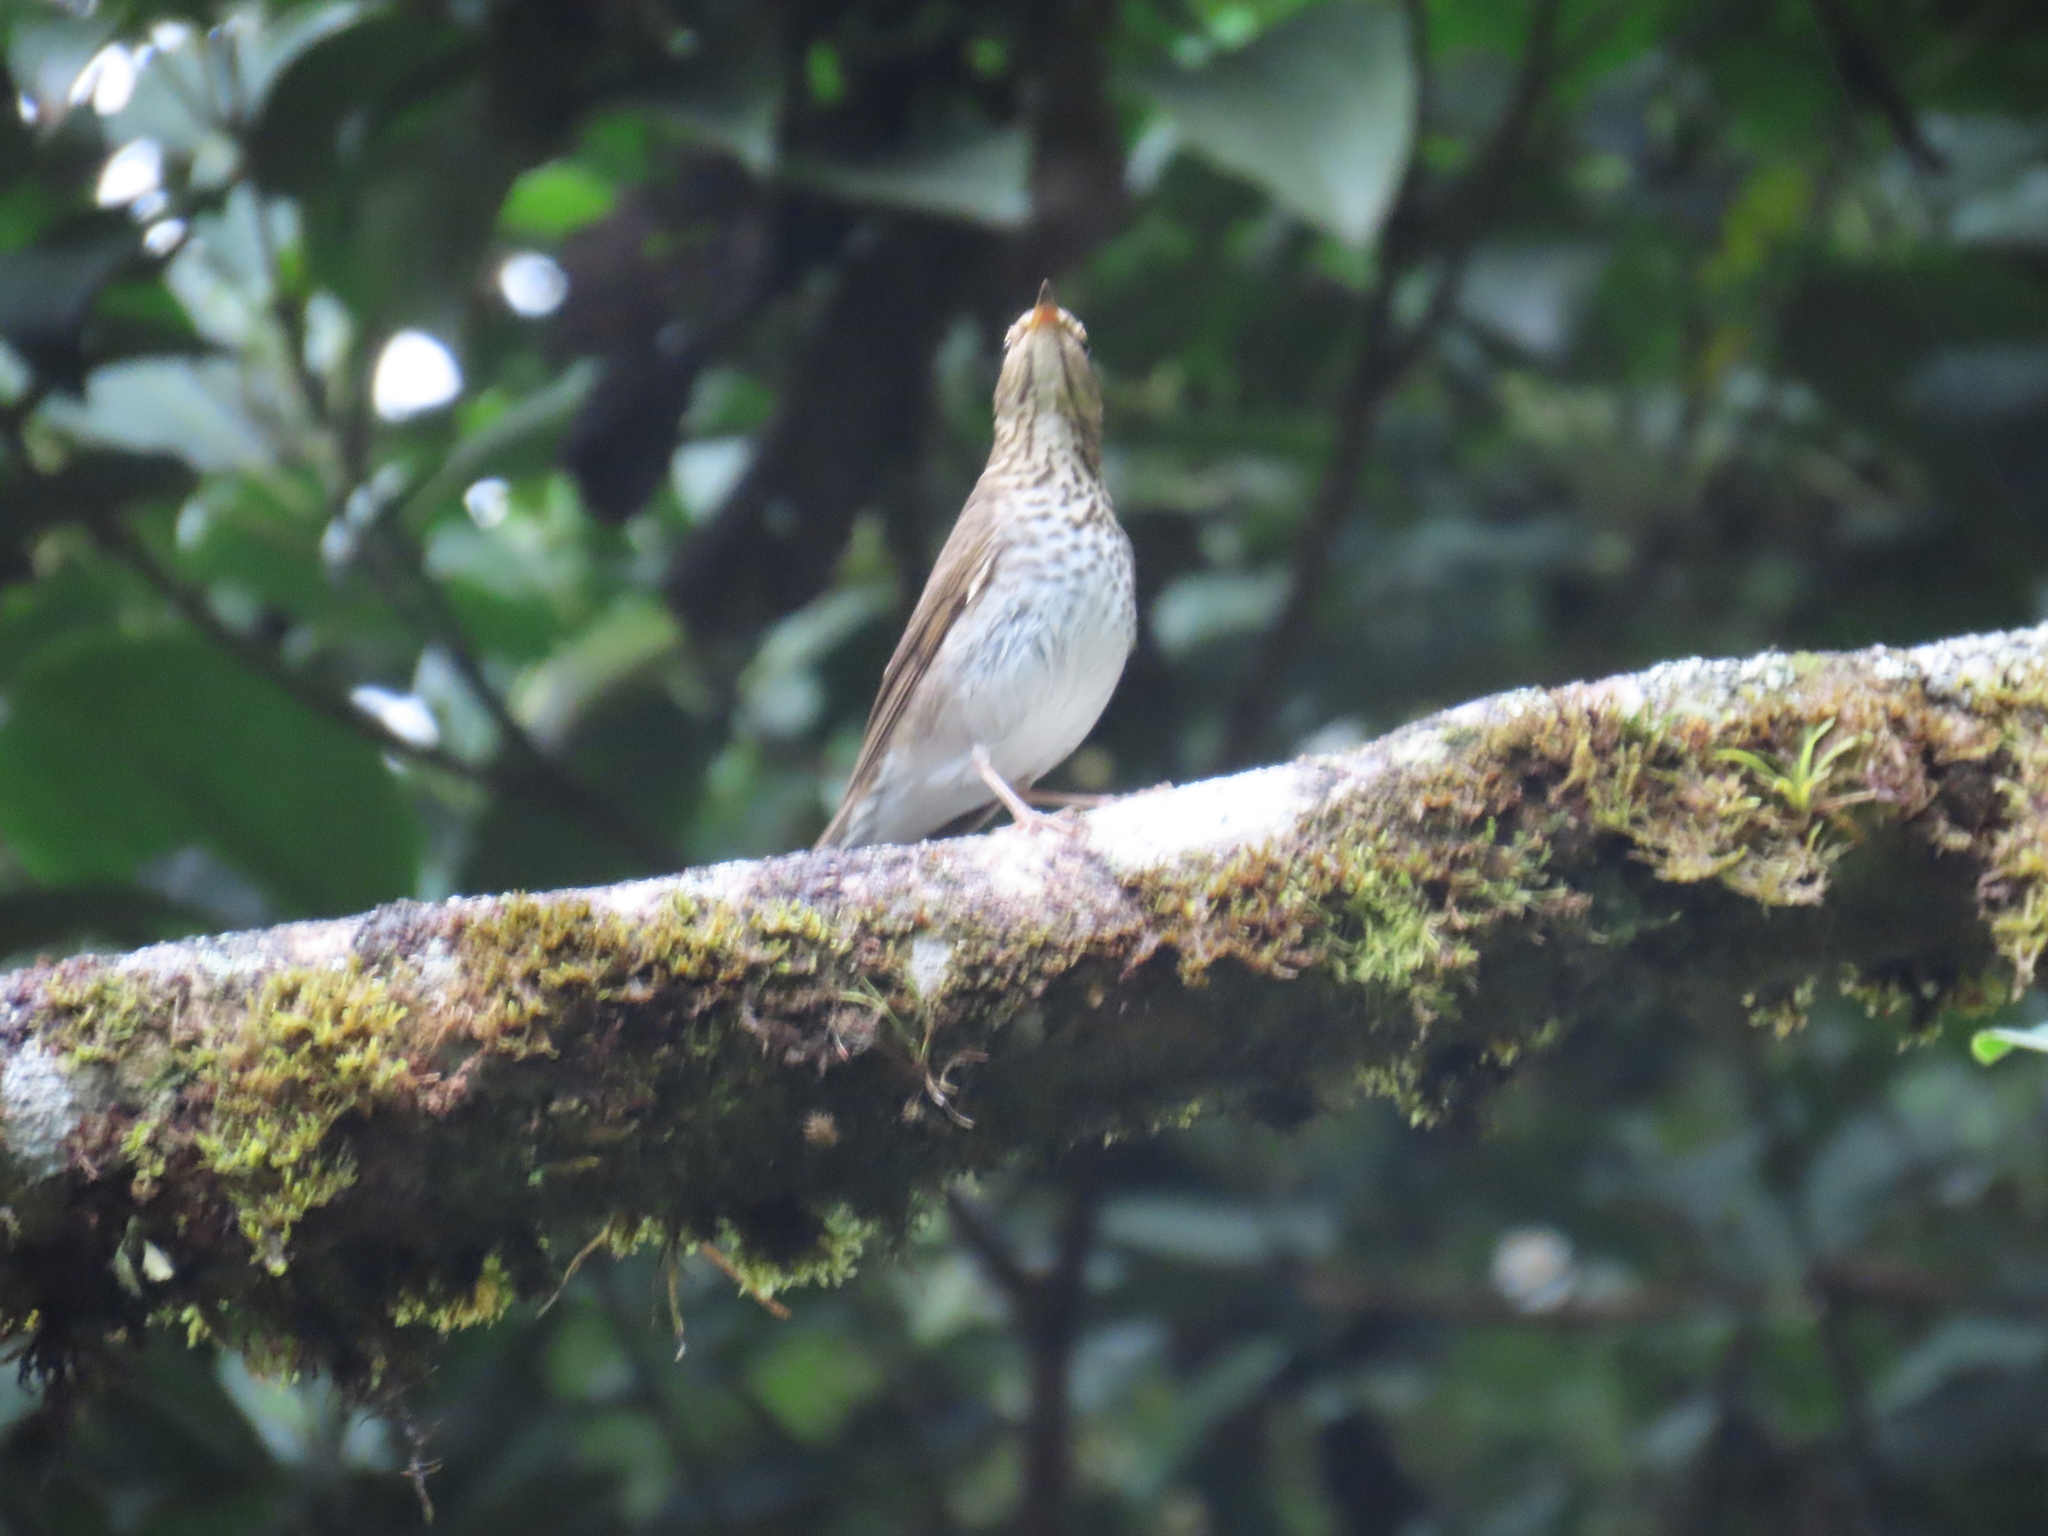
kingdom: Animalia
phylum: Chordata
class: Aves
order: Passeriformes
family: Turdidae
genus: Catharus
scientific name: Catharus ustulatus
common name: Swainson's thrush
